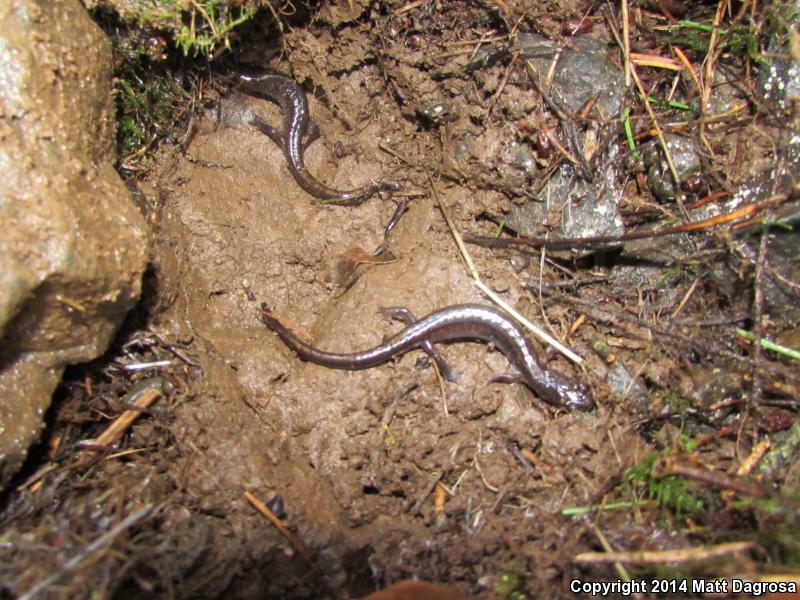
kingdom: Animalia
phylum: Chordata
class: Amphibia
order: Caudata
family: Plethodontidae
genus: Plethodon
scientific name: Plethodon dunni
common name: Dunn's salamander
